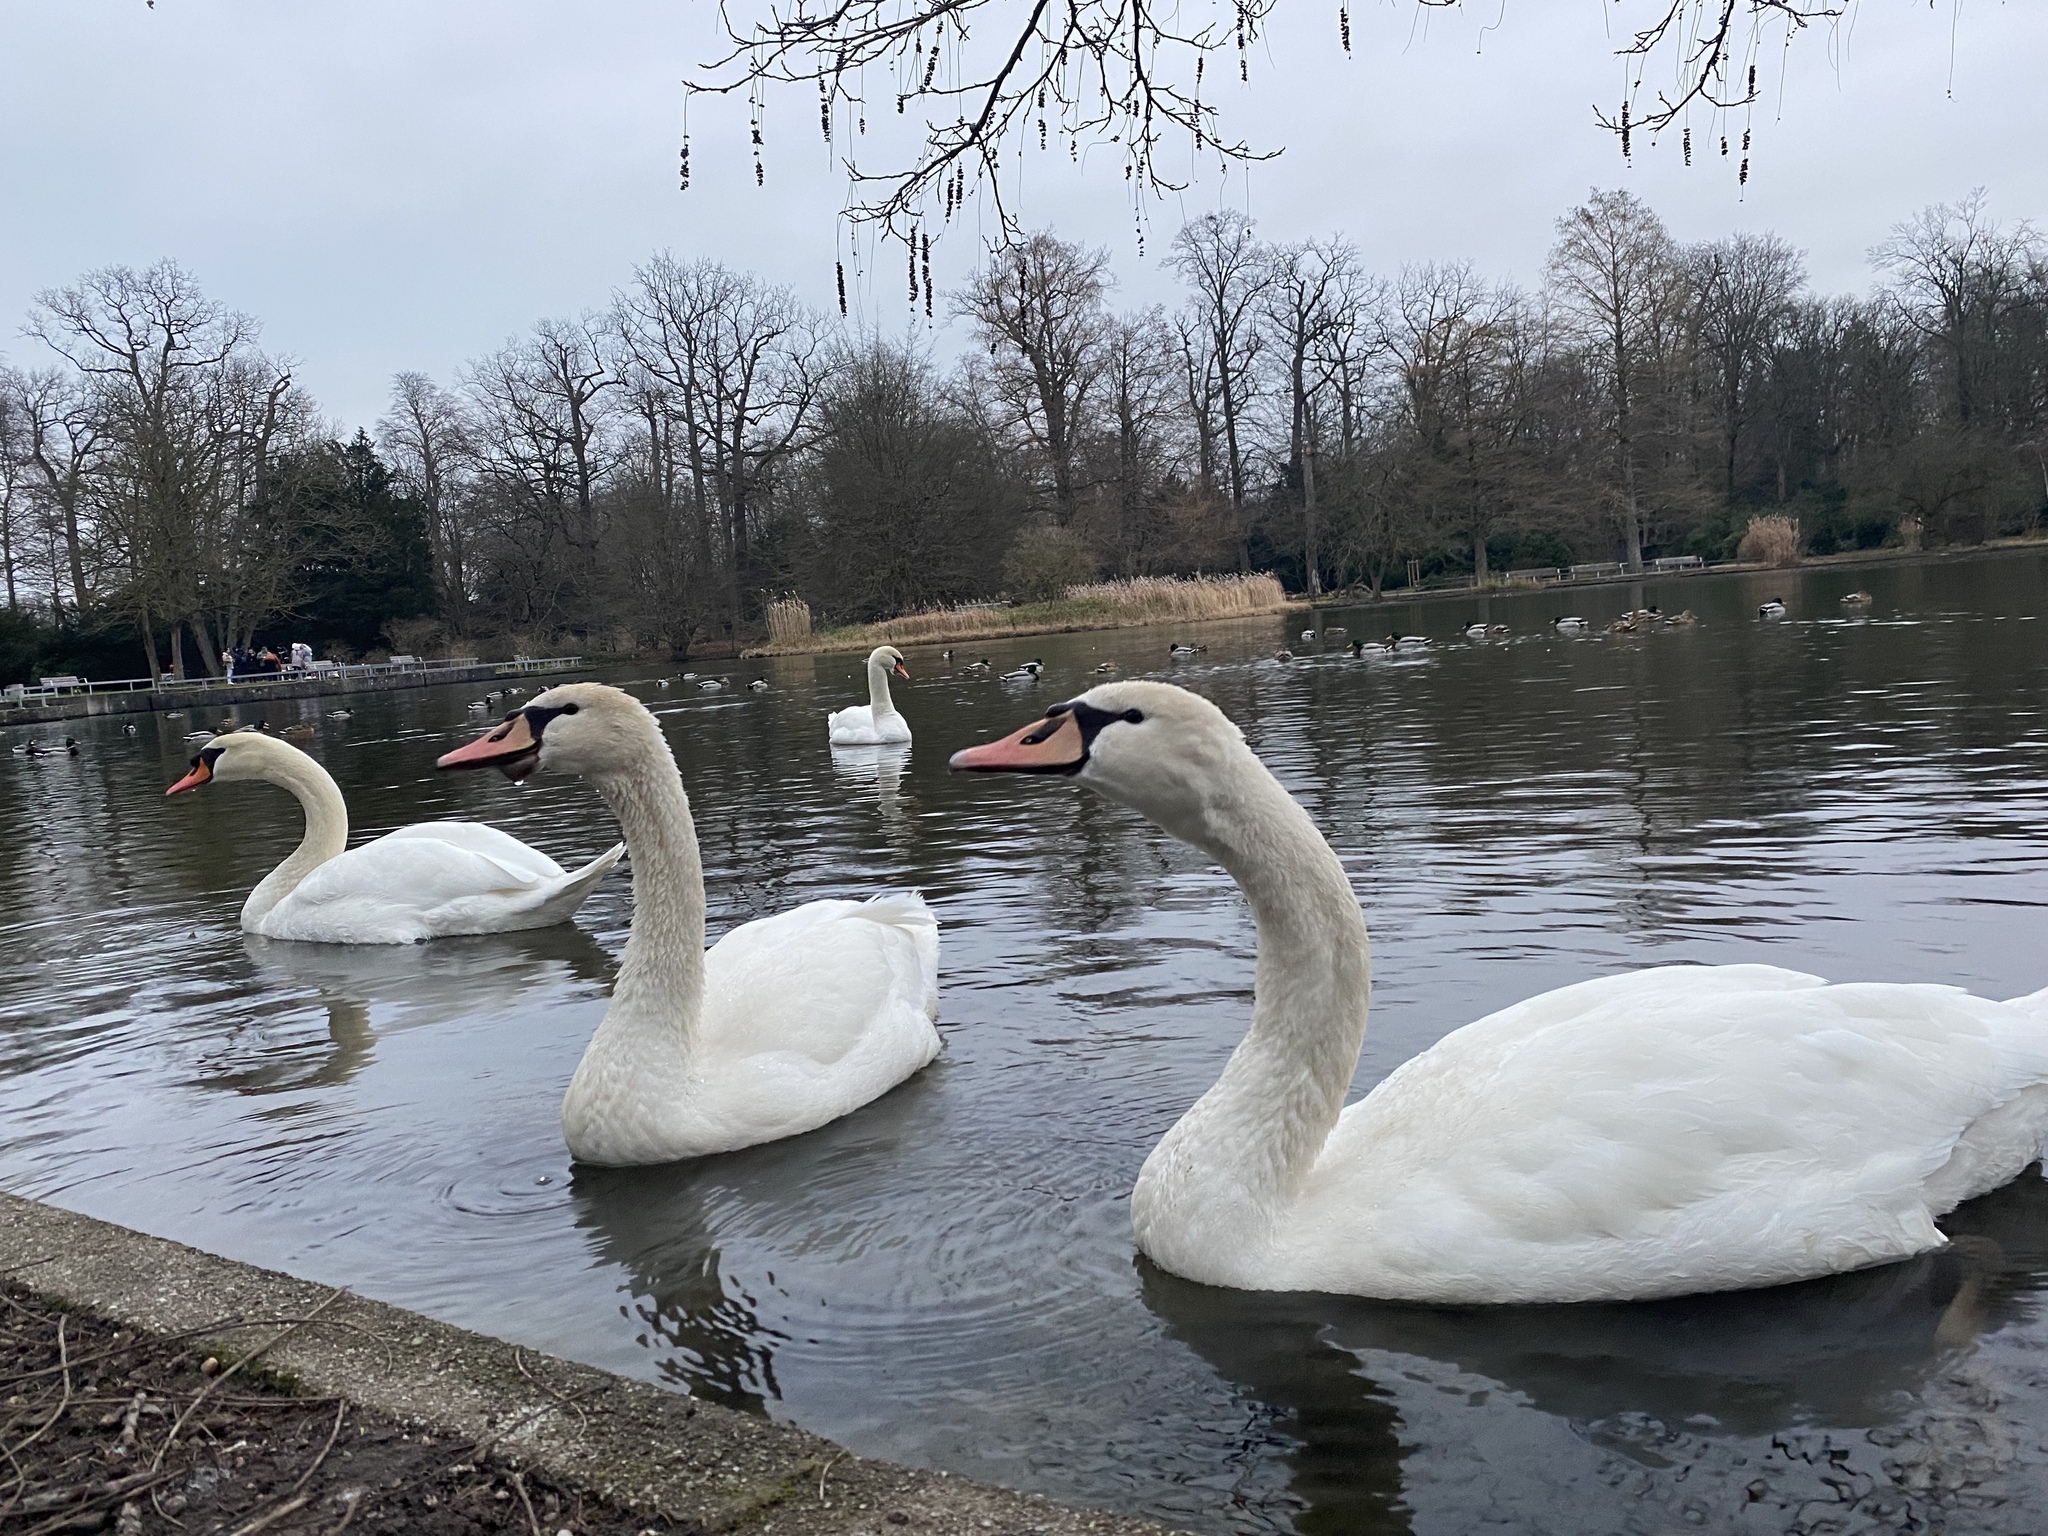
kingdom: Animalia
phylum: Chordata
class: Aves
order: Anseriformes
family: Anatidae
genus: Cygnus
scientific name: Cygnus olor
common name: Mute swan
